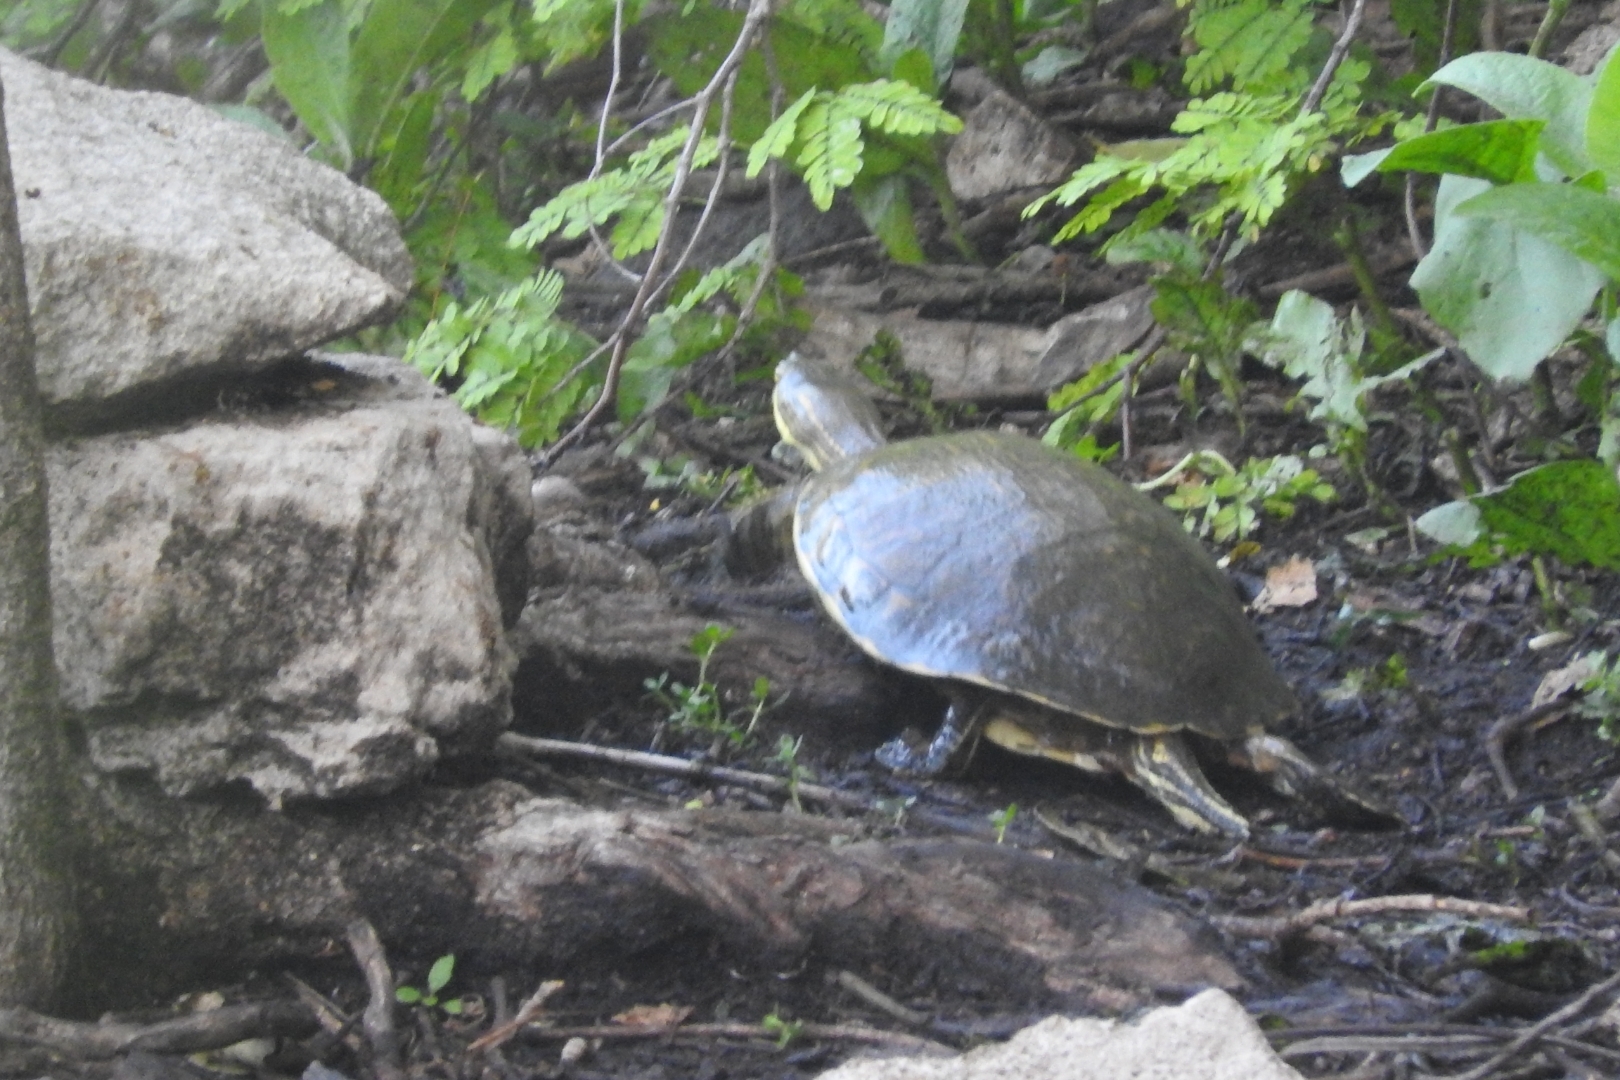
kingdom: Animalia
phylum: Chordata
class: Testudines
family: Emydidae
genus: Trachemys
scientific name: Trachemys venusta
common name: Mesoamerican slider
